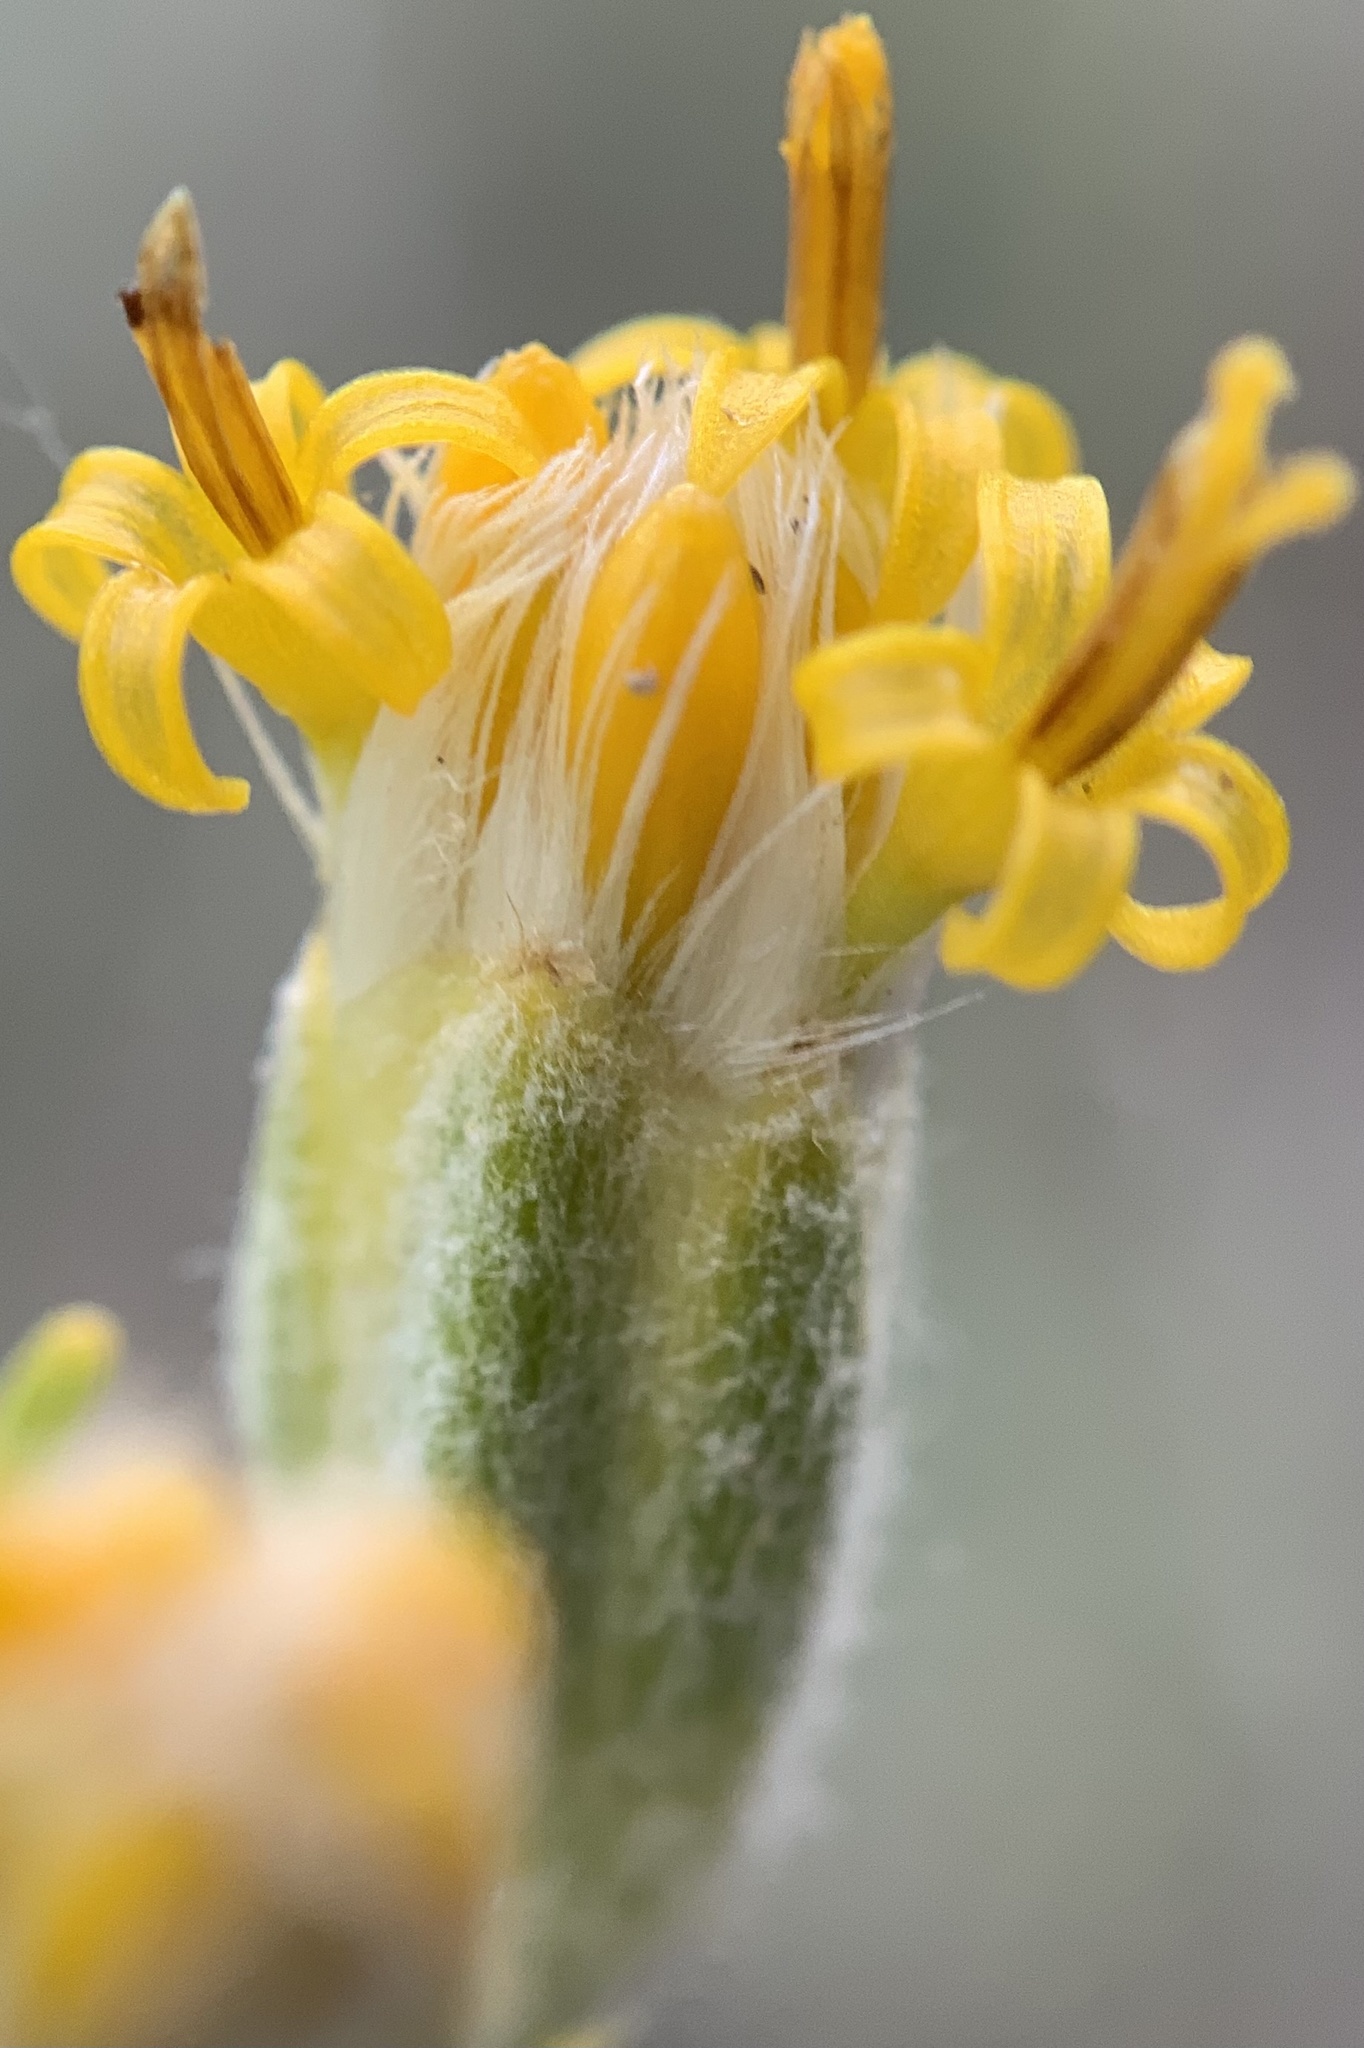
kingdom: Plantae
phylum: Tracheophyta
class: Magnoliopsida
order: Asterales
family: Asteraceae
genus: Tetradymia
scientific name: Tetradymia spinosa
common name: Thorny horsebrush
